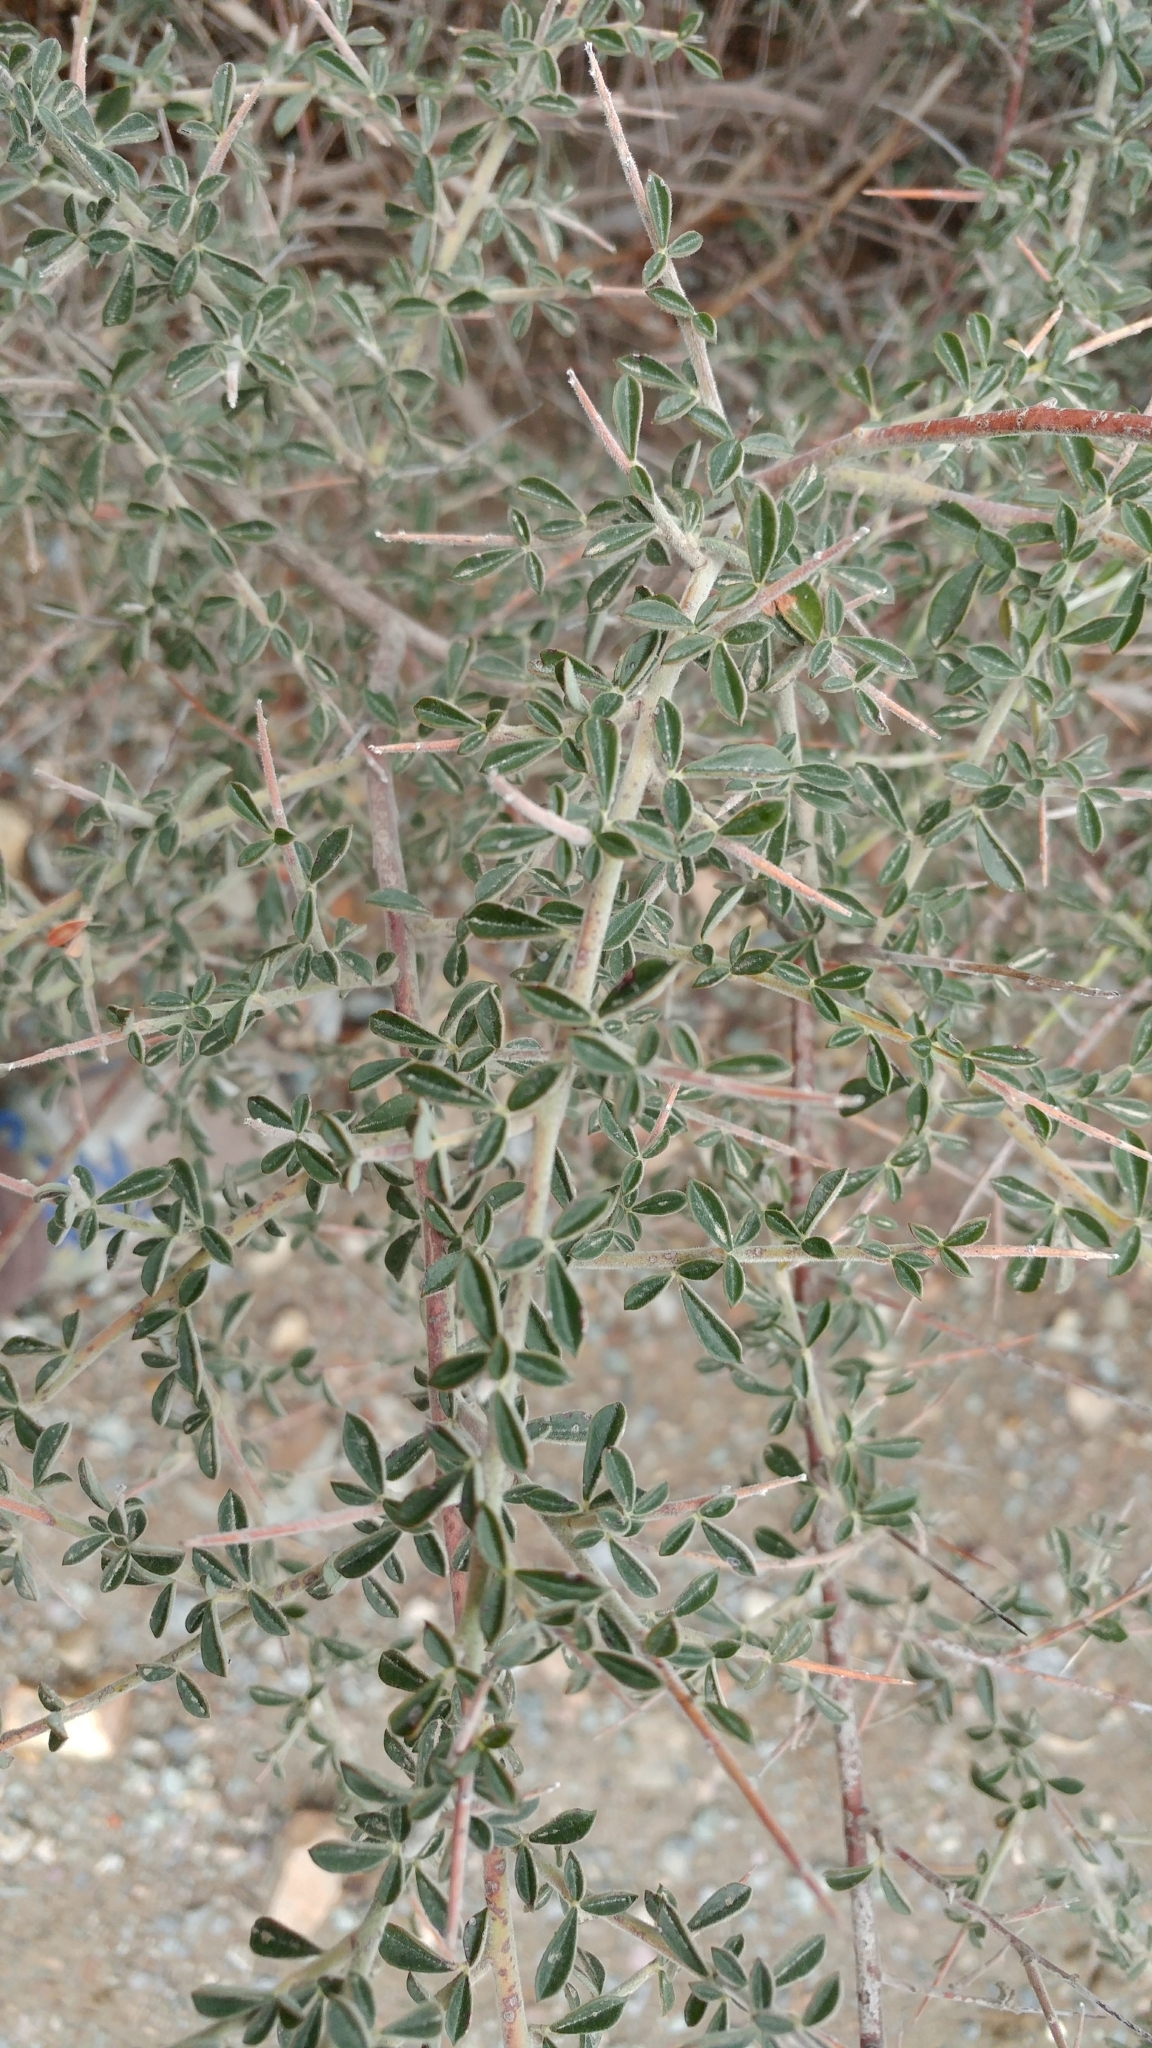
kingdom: Plantae
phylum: Tracheophyta
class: Magnoliopsida
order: Fabales
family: Fabaceae
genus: Pickeringia
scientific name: Pickeringia montana
